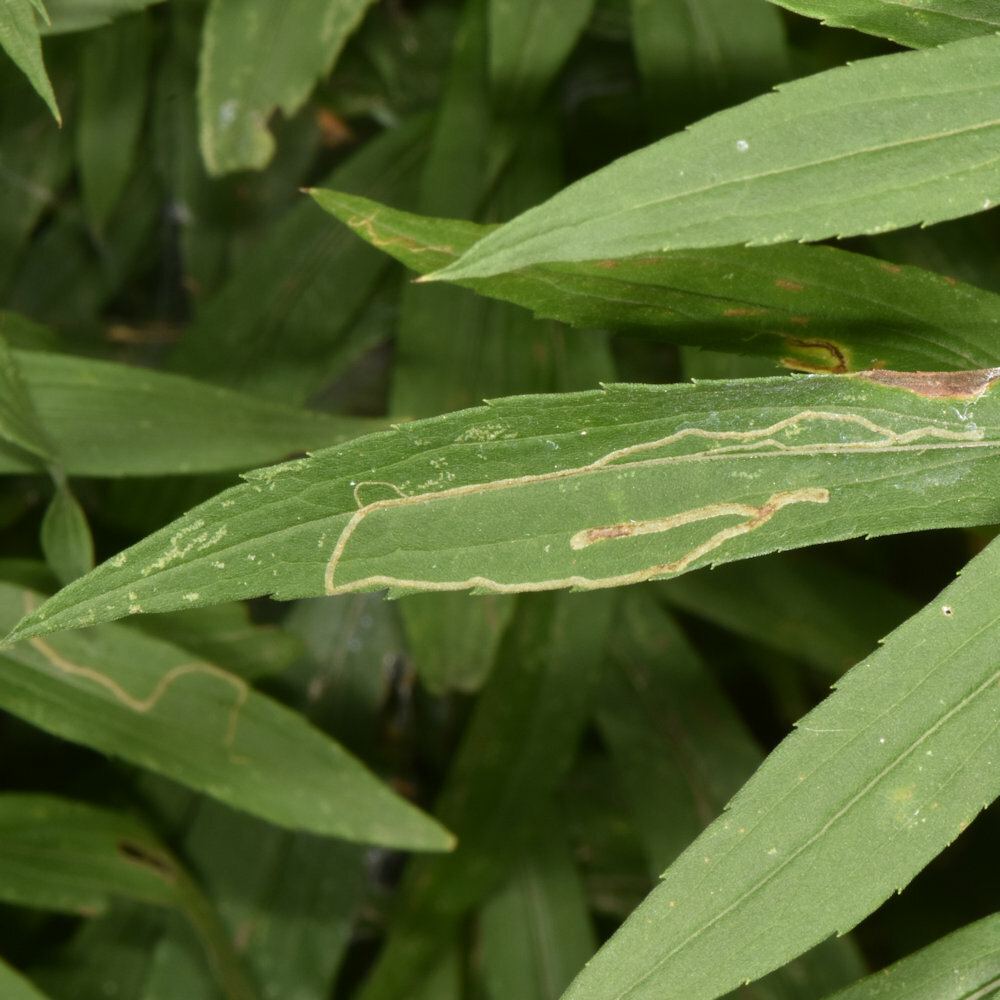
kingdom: Animalia
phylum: Arthropoda
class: Insecta
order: Diptera
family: Agromyzidae
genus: Ophiomyia
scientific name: Ophiomyia maura
